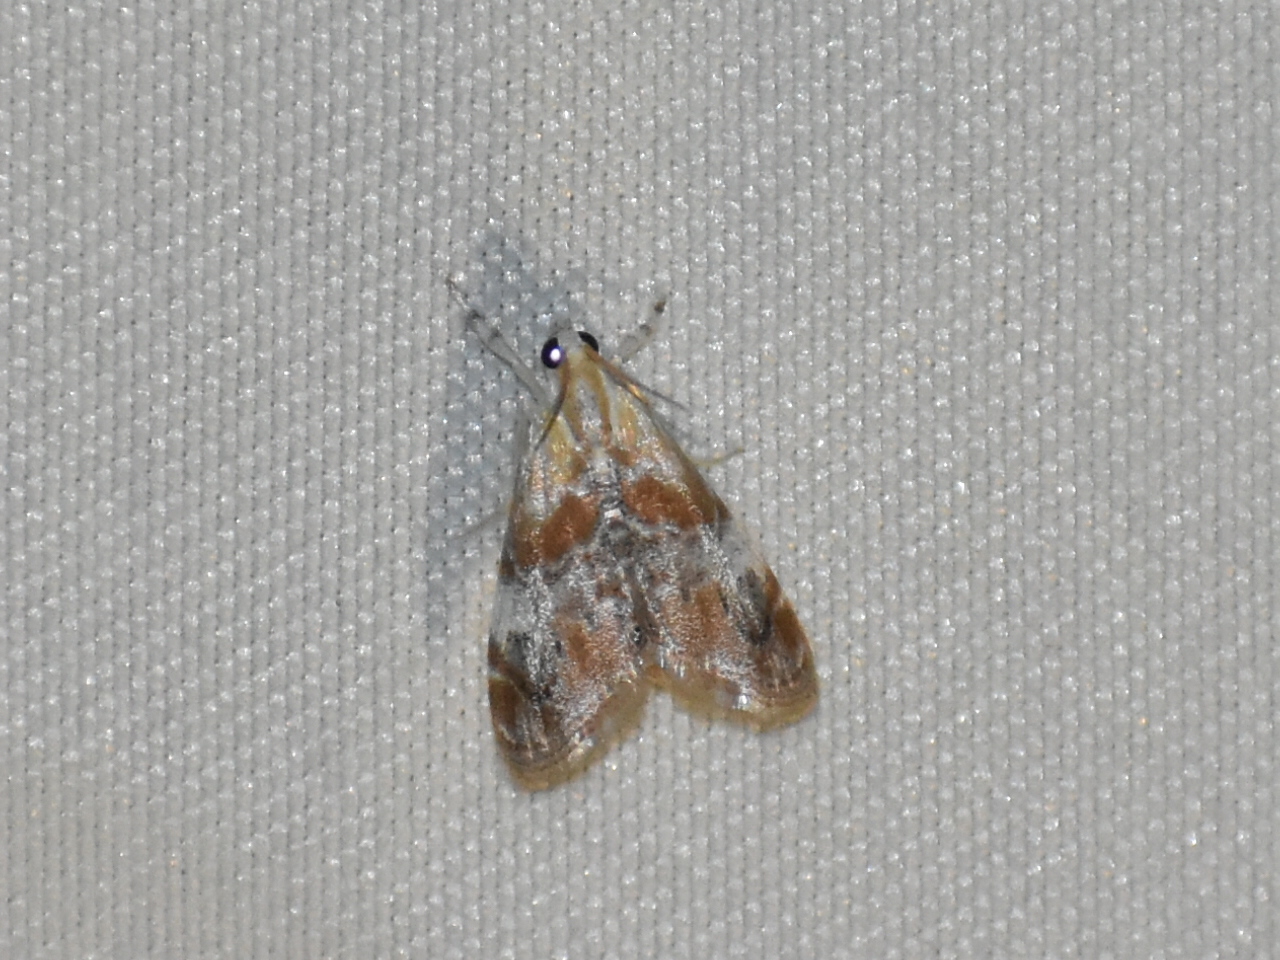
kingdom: Animalia
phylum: Arthropoda
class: Insecta
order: Lepidoptera
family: Crambidae
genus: Dicymolomia
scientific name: Dicymolomia julianalis
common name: Julia's dicymolomia moth
